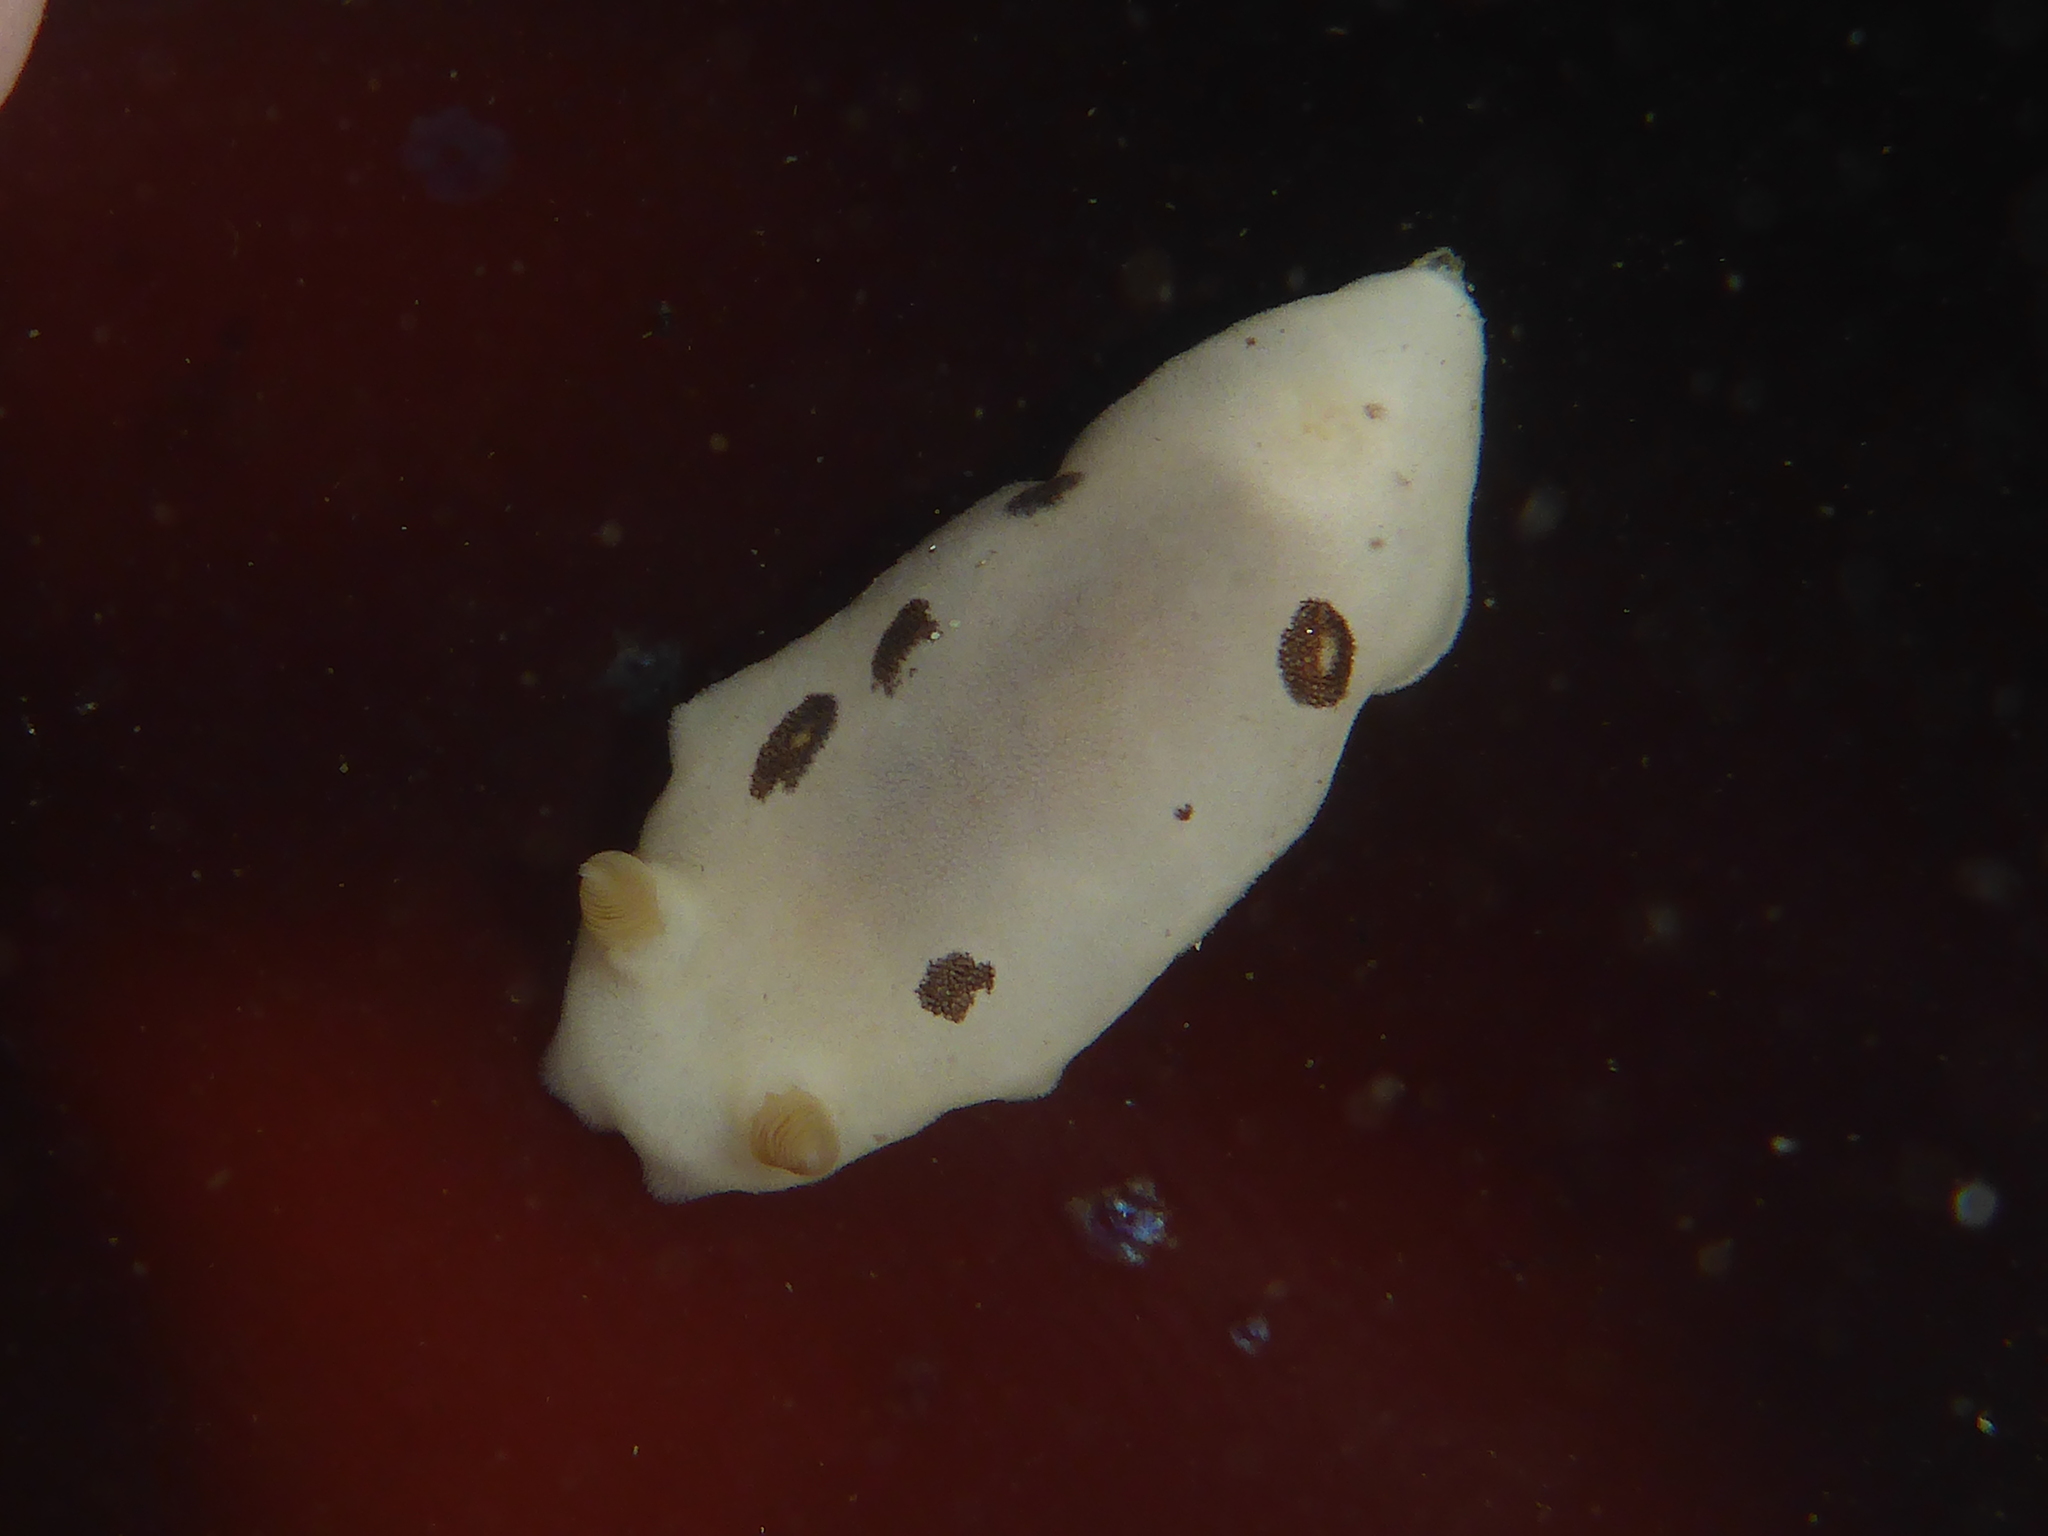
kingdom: Animalia
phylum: Mollusca
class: Gastropoda
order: Nudibranchia
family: Discodorididae
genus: Diaulula
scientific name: Diaulula sandiegensis
